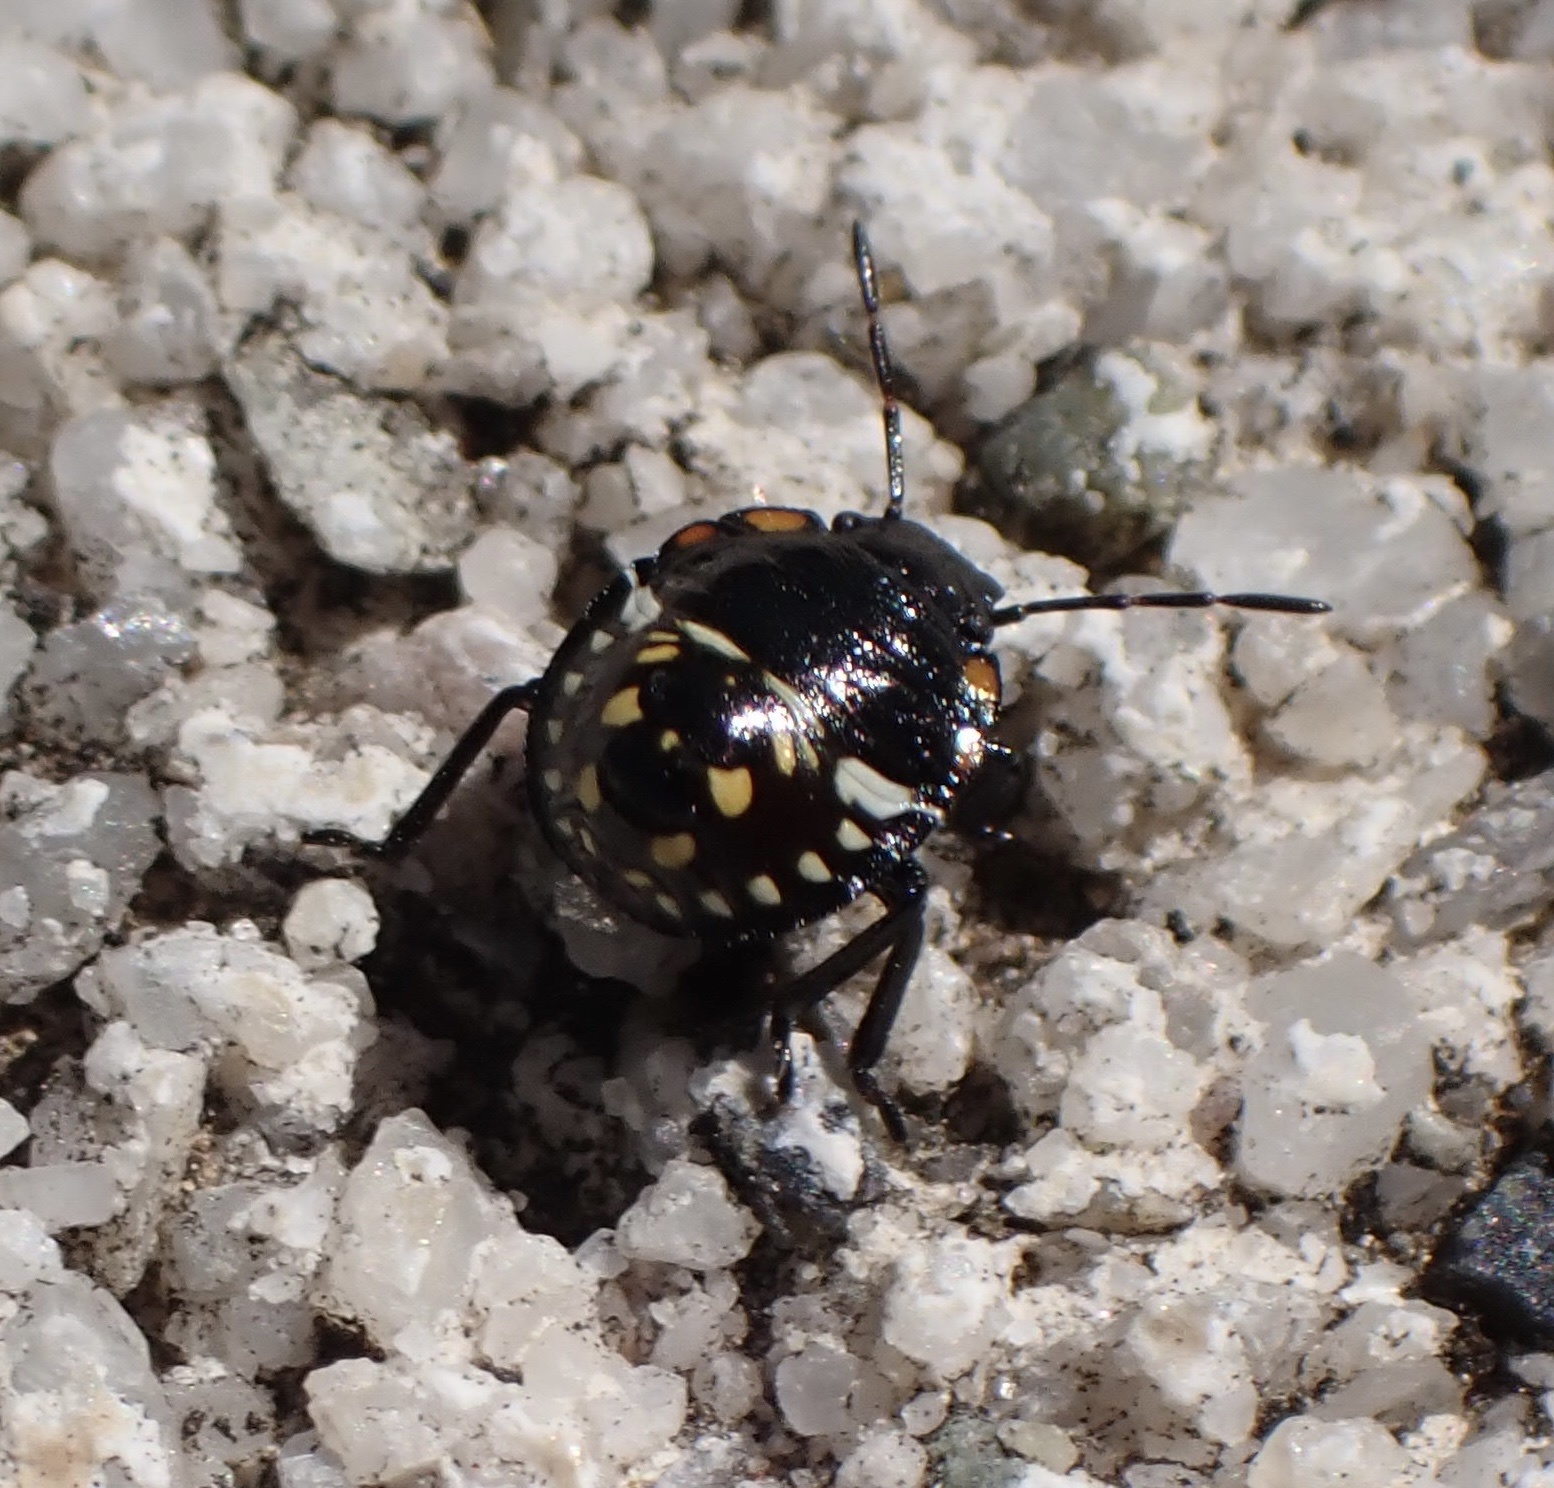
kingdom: Animalia
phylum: Arthropoda
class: Insecta
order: Hemiptera
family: Pentatomidae
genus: Nezara
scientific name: Nezara viridula
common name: Southern green stink bug
